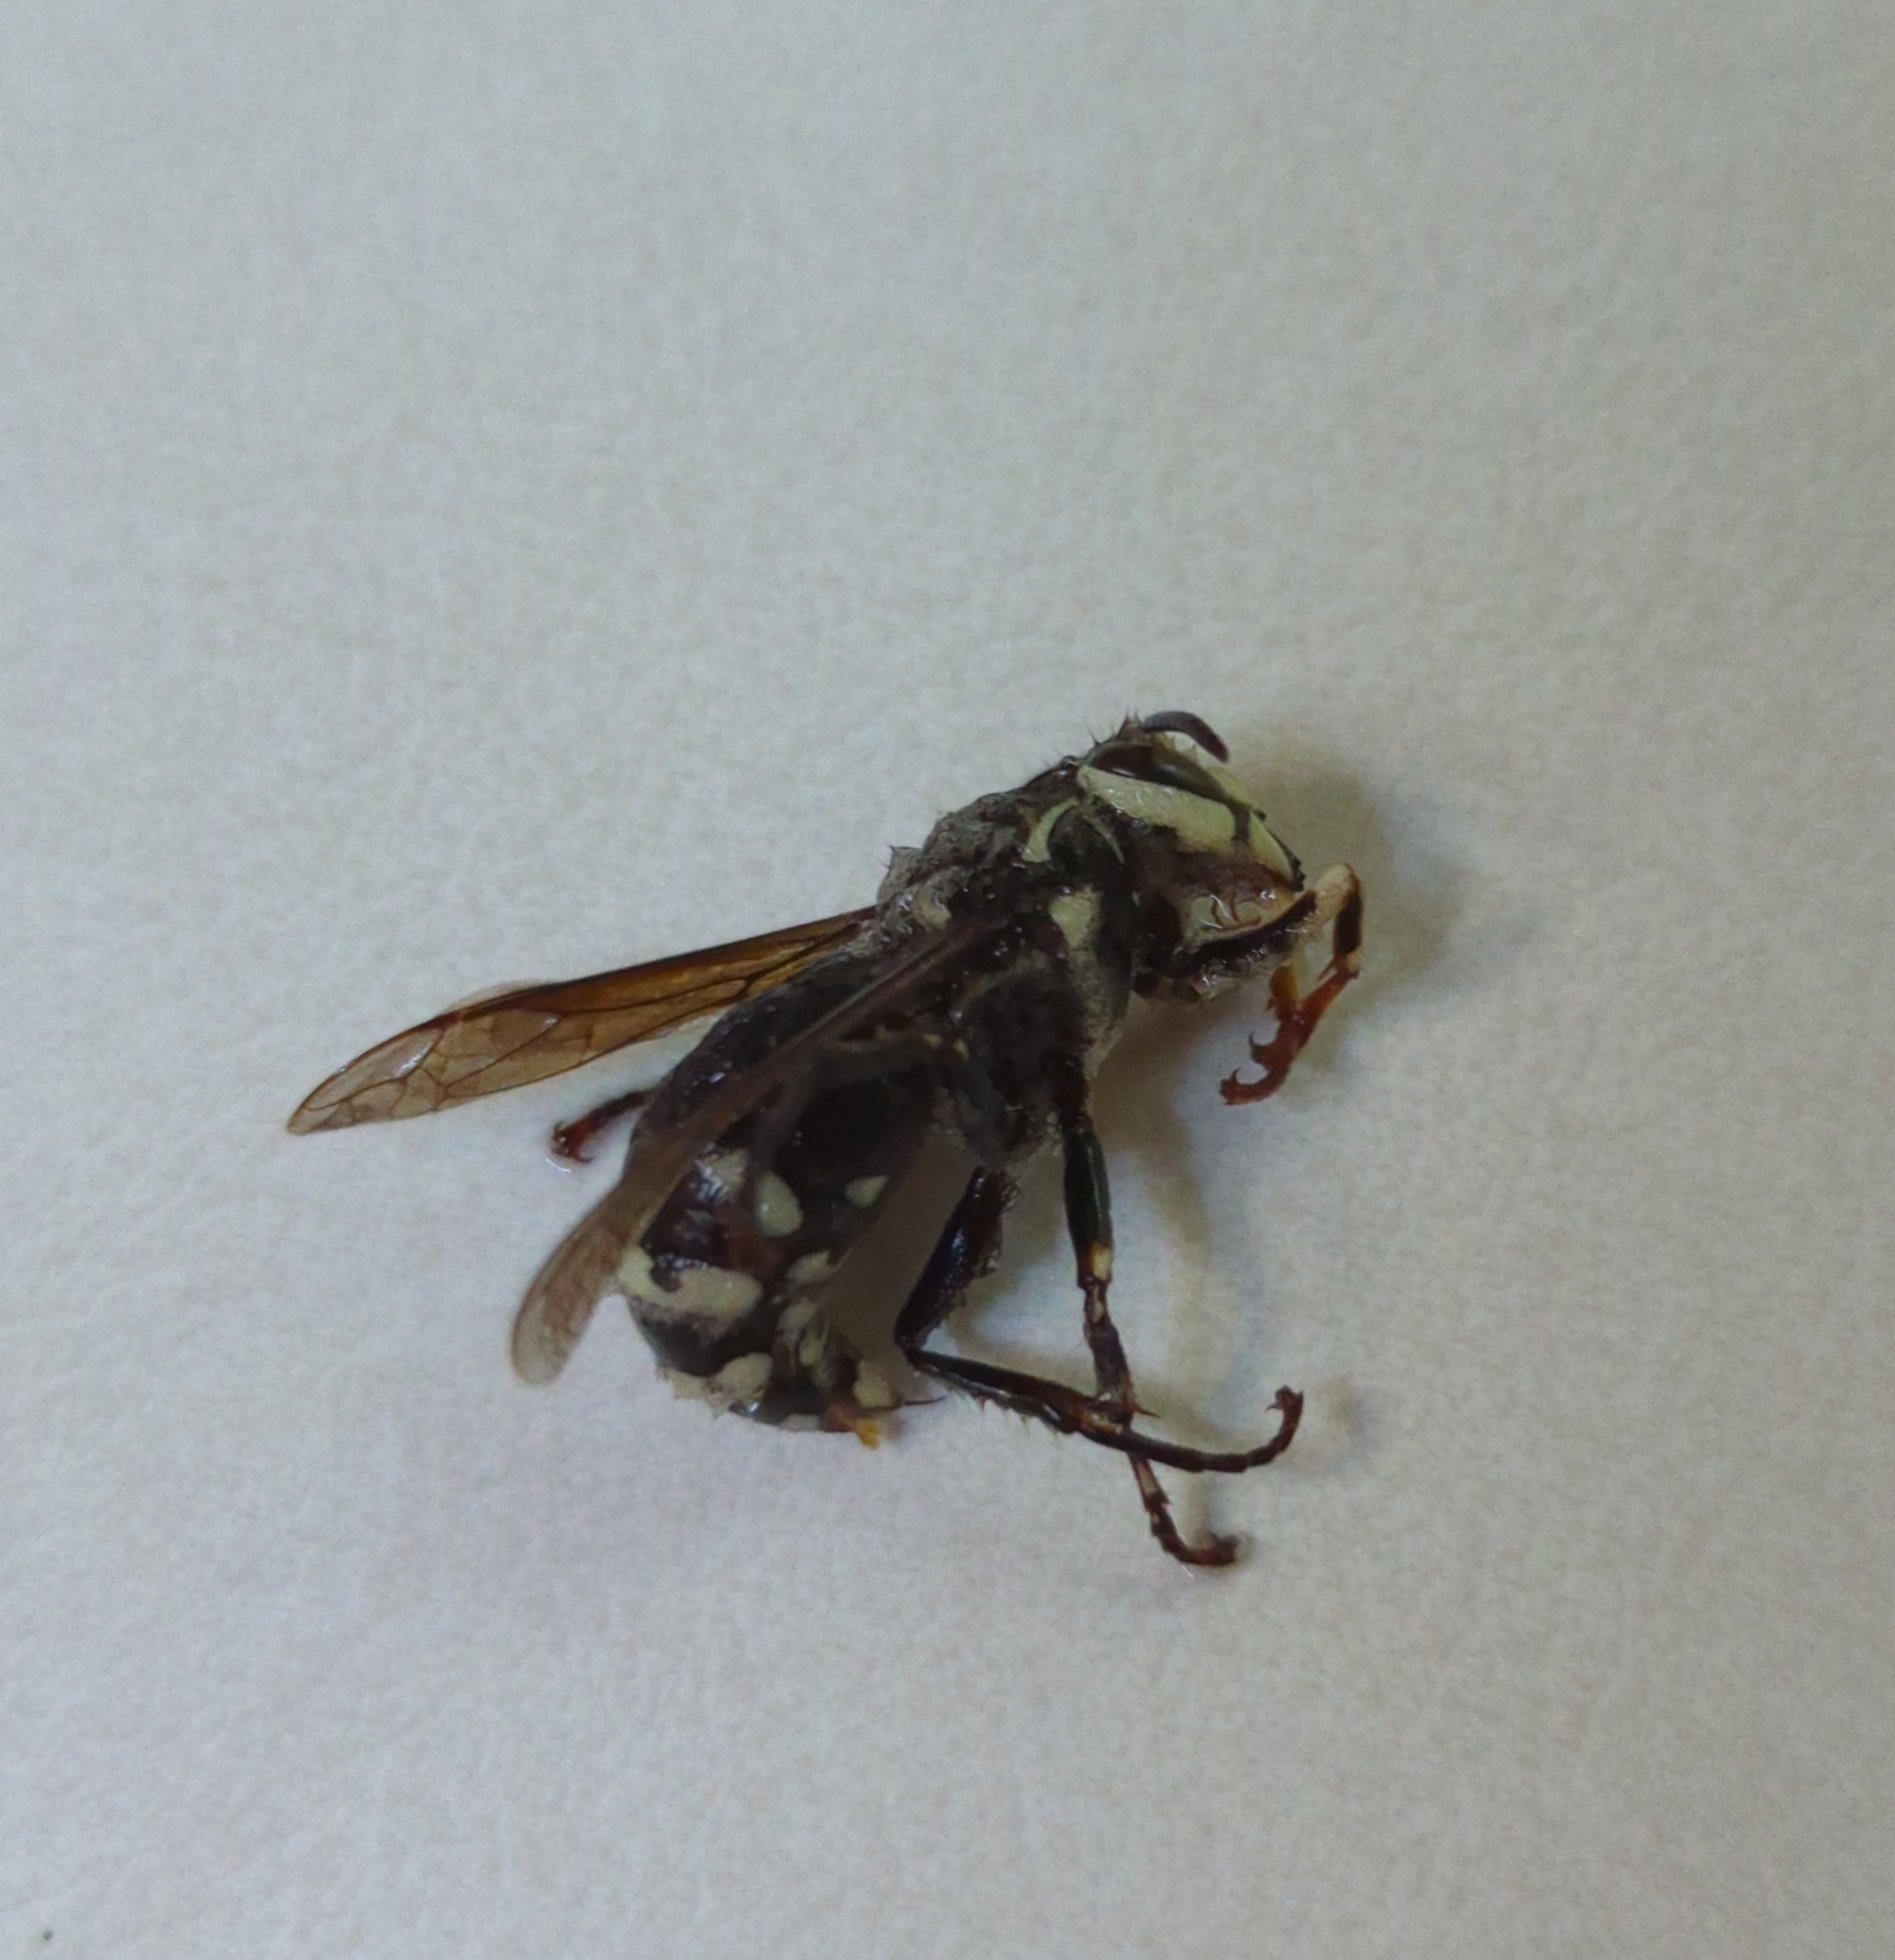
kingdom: Animalia
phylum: Arthropoda
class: Insecta
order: Hymenoptera
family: Vespidae
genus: Dolichovespula
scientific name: Dolichovespula maculata
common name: Bald-faced hornet
